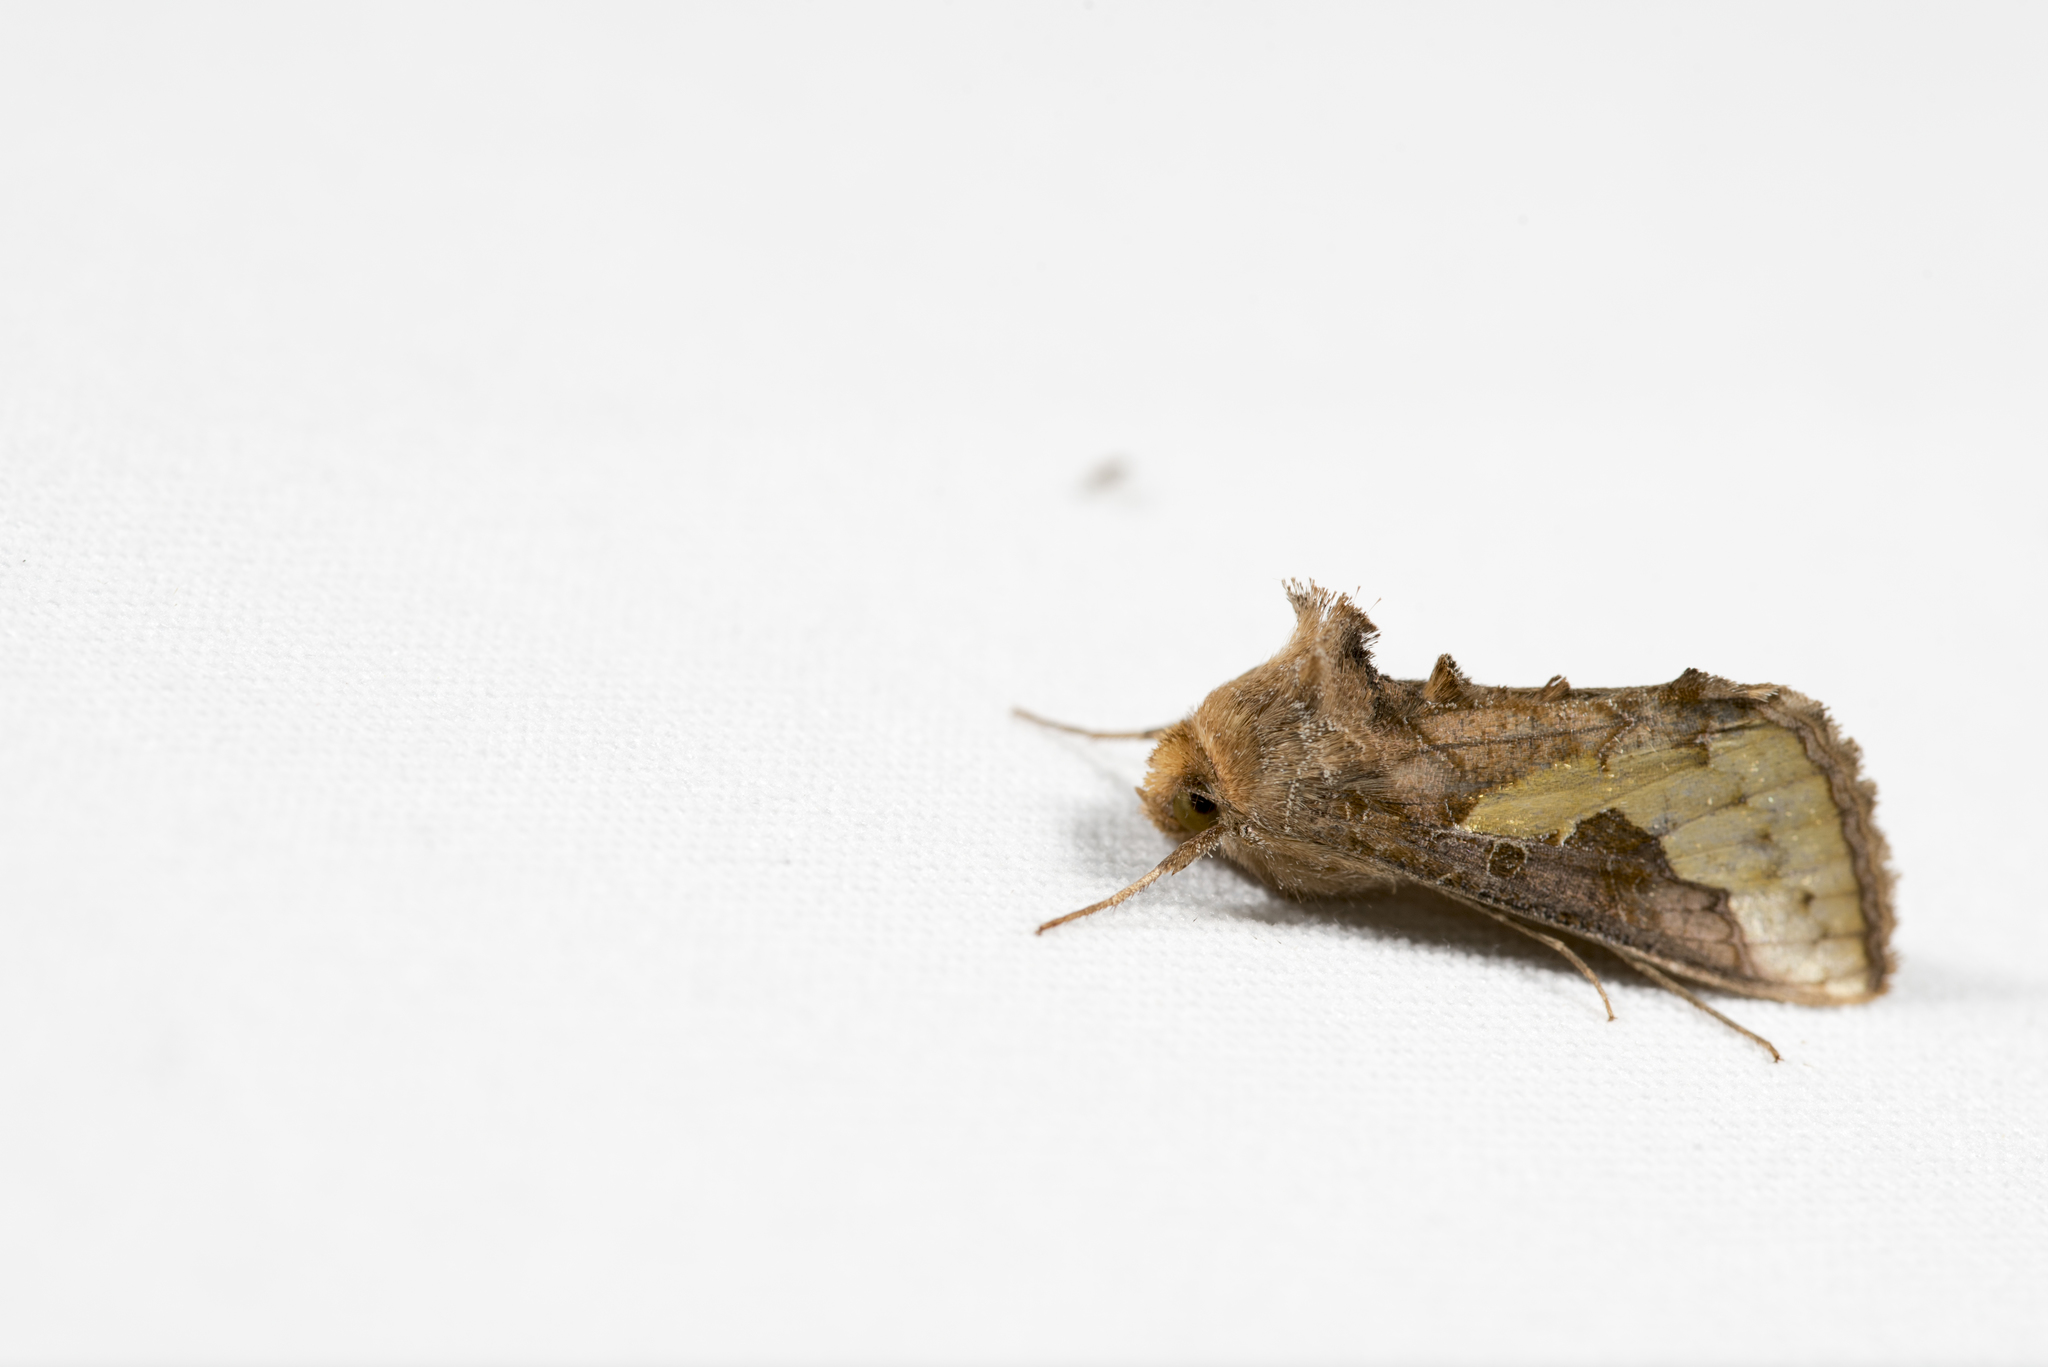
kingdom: Animalia
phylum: Arthropoda
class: Insecta
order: Lepidoptera
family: Noctuidae
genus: Thysanoplusia
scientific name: Thysanoplusia orichalcea
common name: Slender burnished brass, golden plusia
